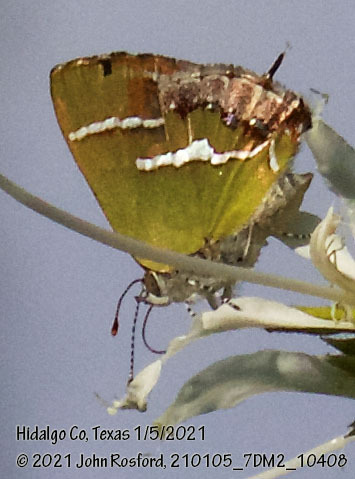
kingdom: Animalia
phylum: Arthropoda
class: Insecta
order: Lepidoptera
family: Lycaenidae
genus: Chlorostrymon
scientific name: Chlorostrymon simaethis
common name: Silver-banded hairstreak
